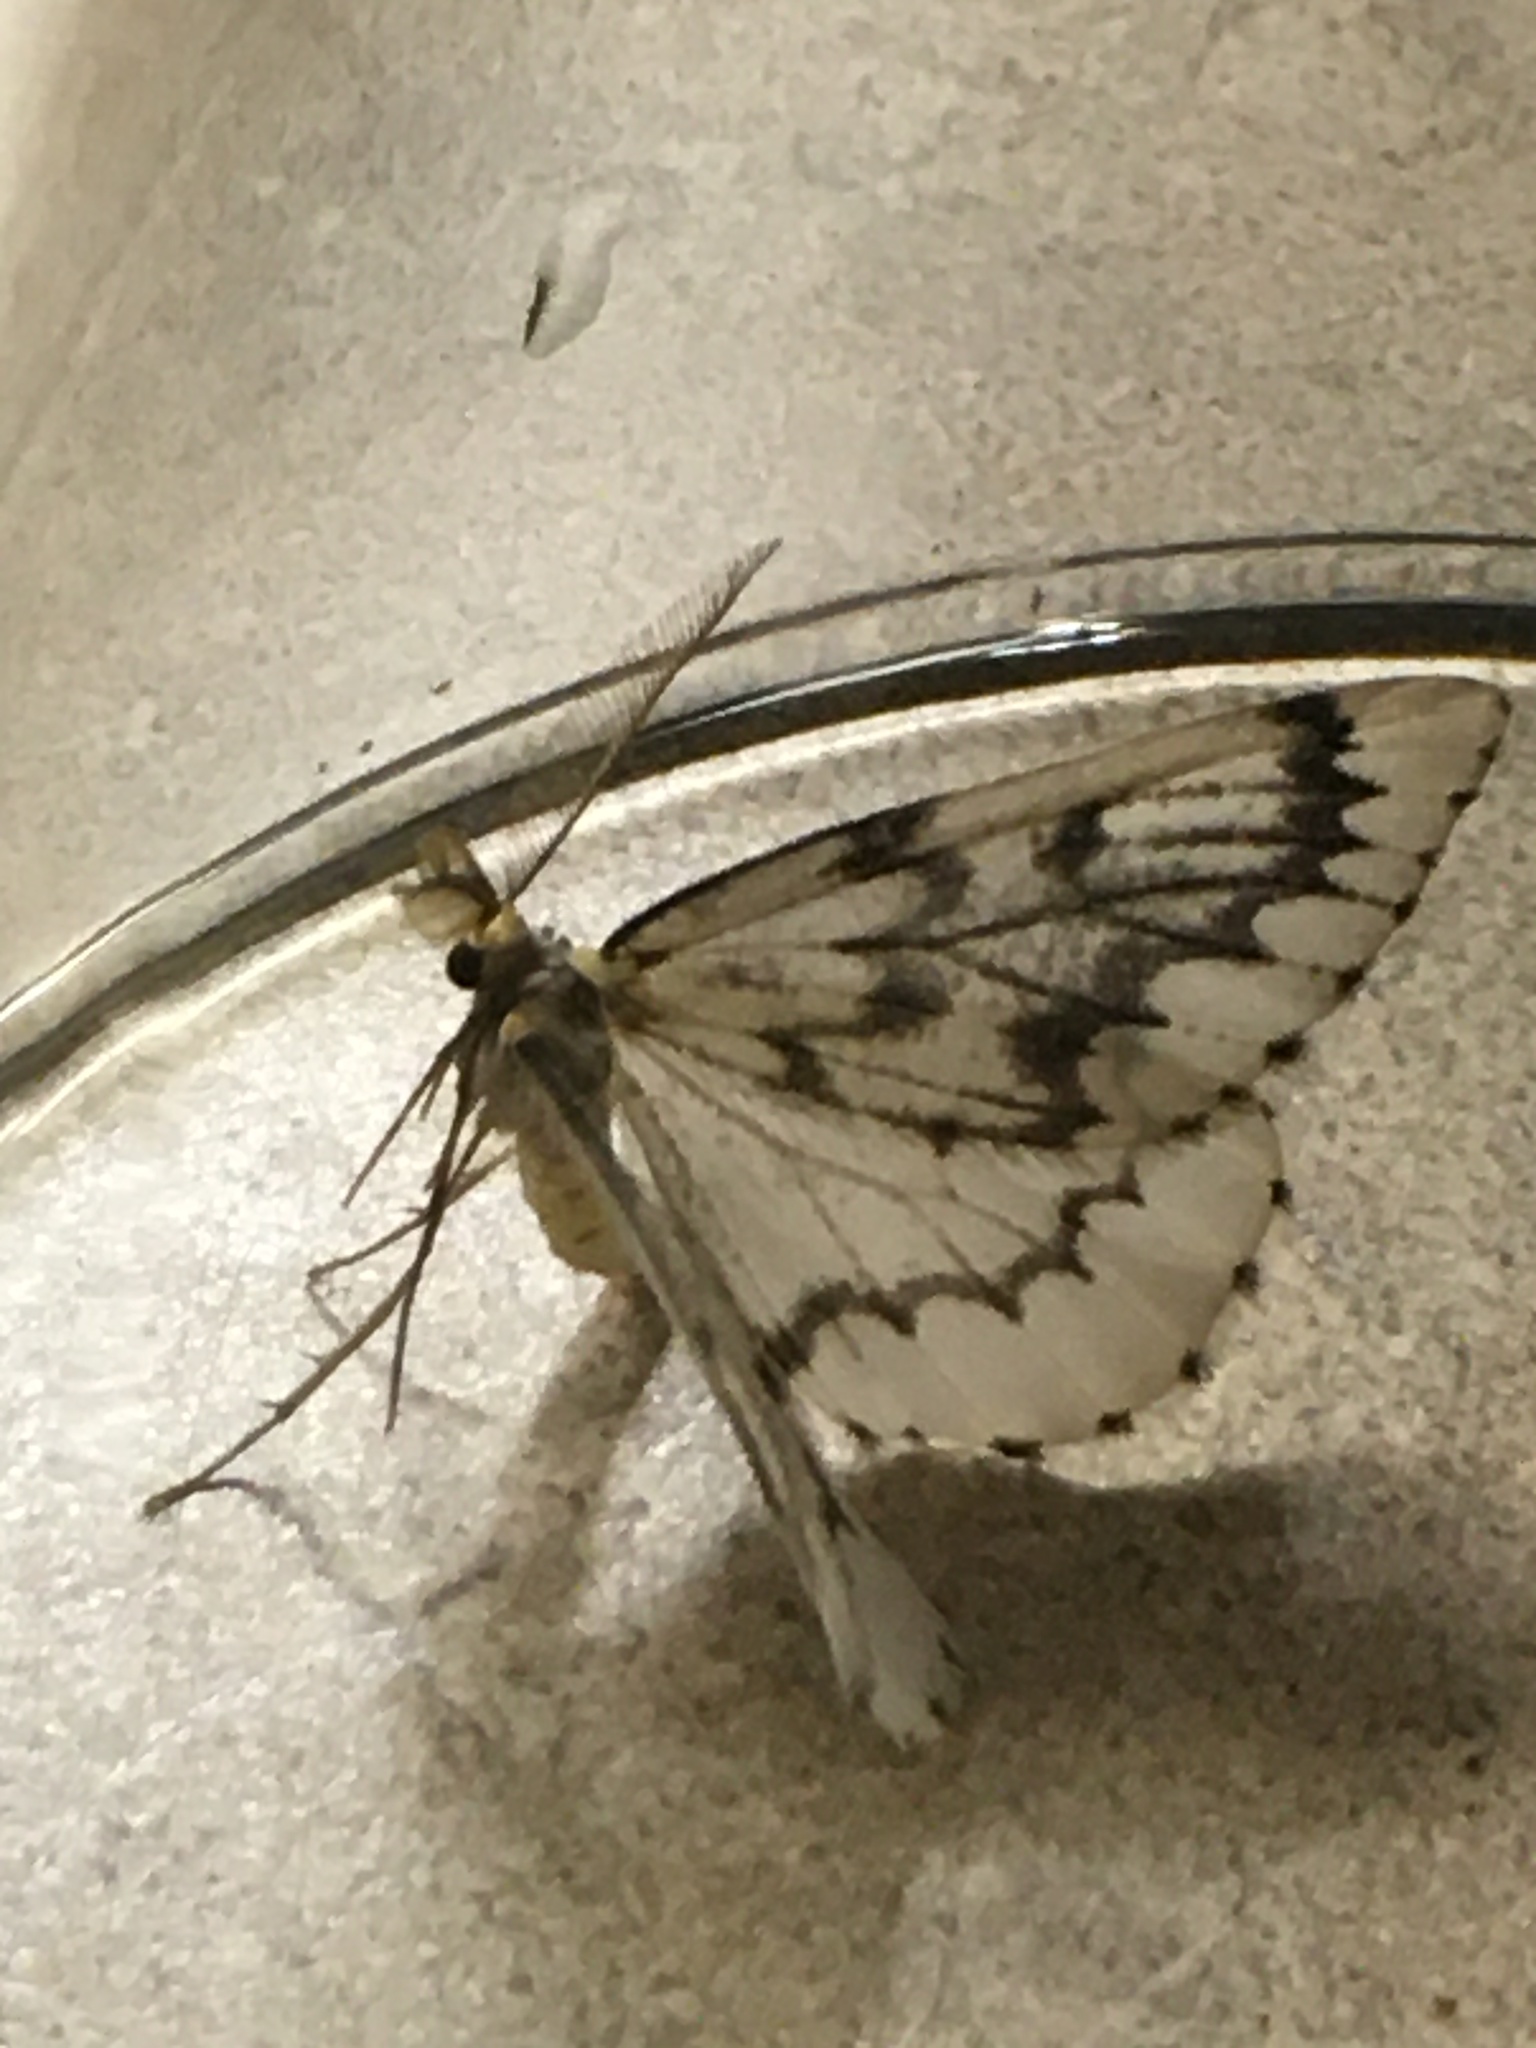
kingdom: Animalia
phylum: Arthropoda
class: Insecta
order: Lepidoptera
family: Geometridae
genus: Nepytia
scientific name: Nepytia phantasmaria
